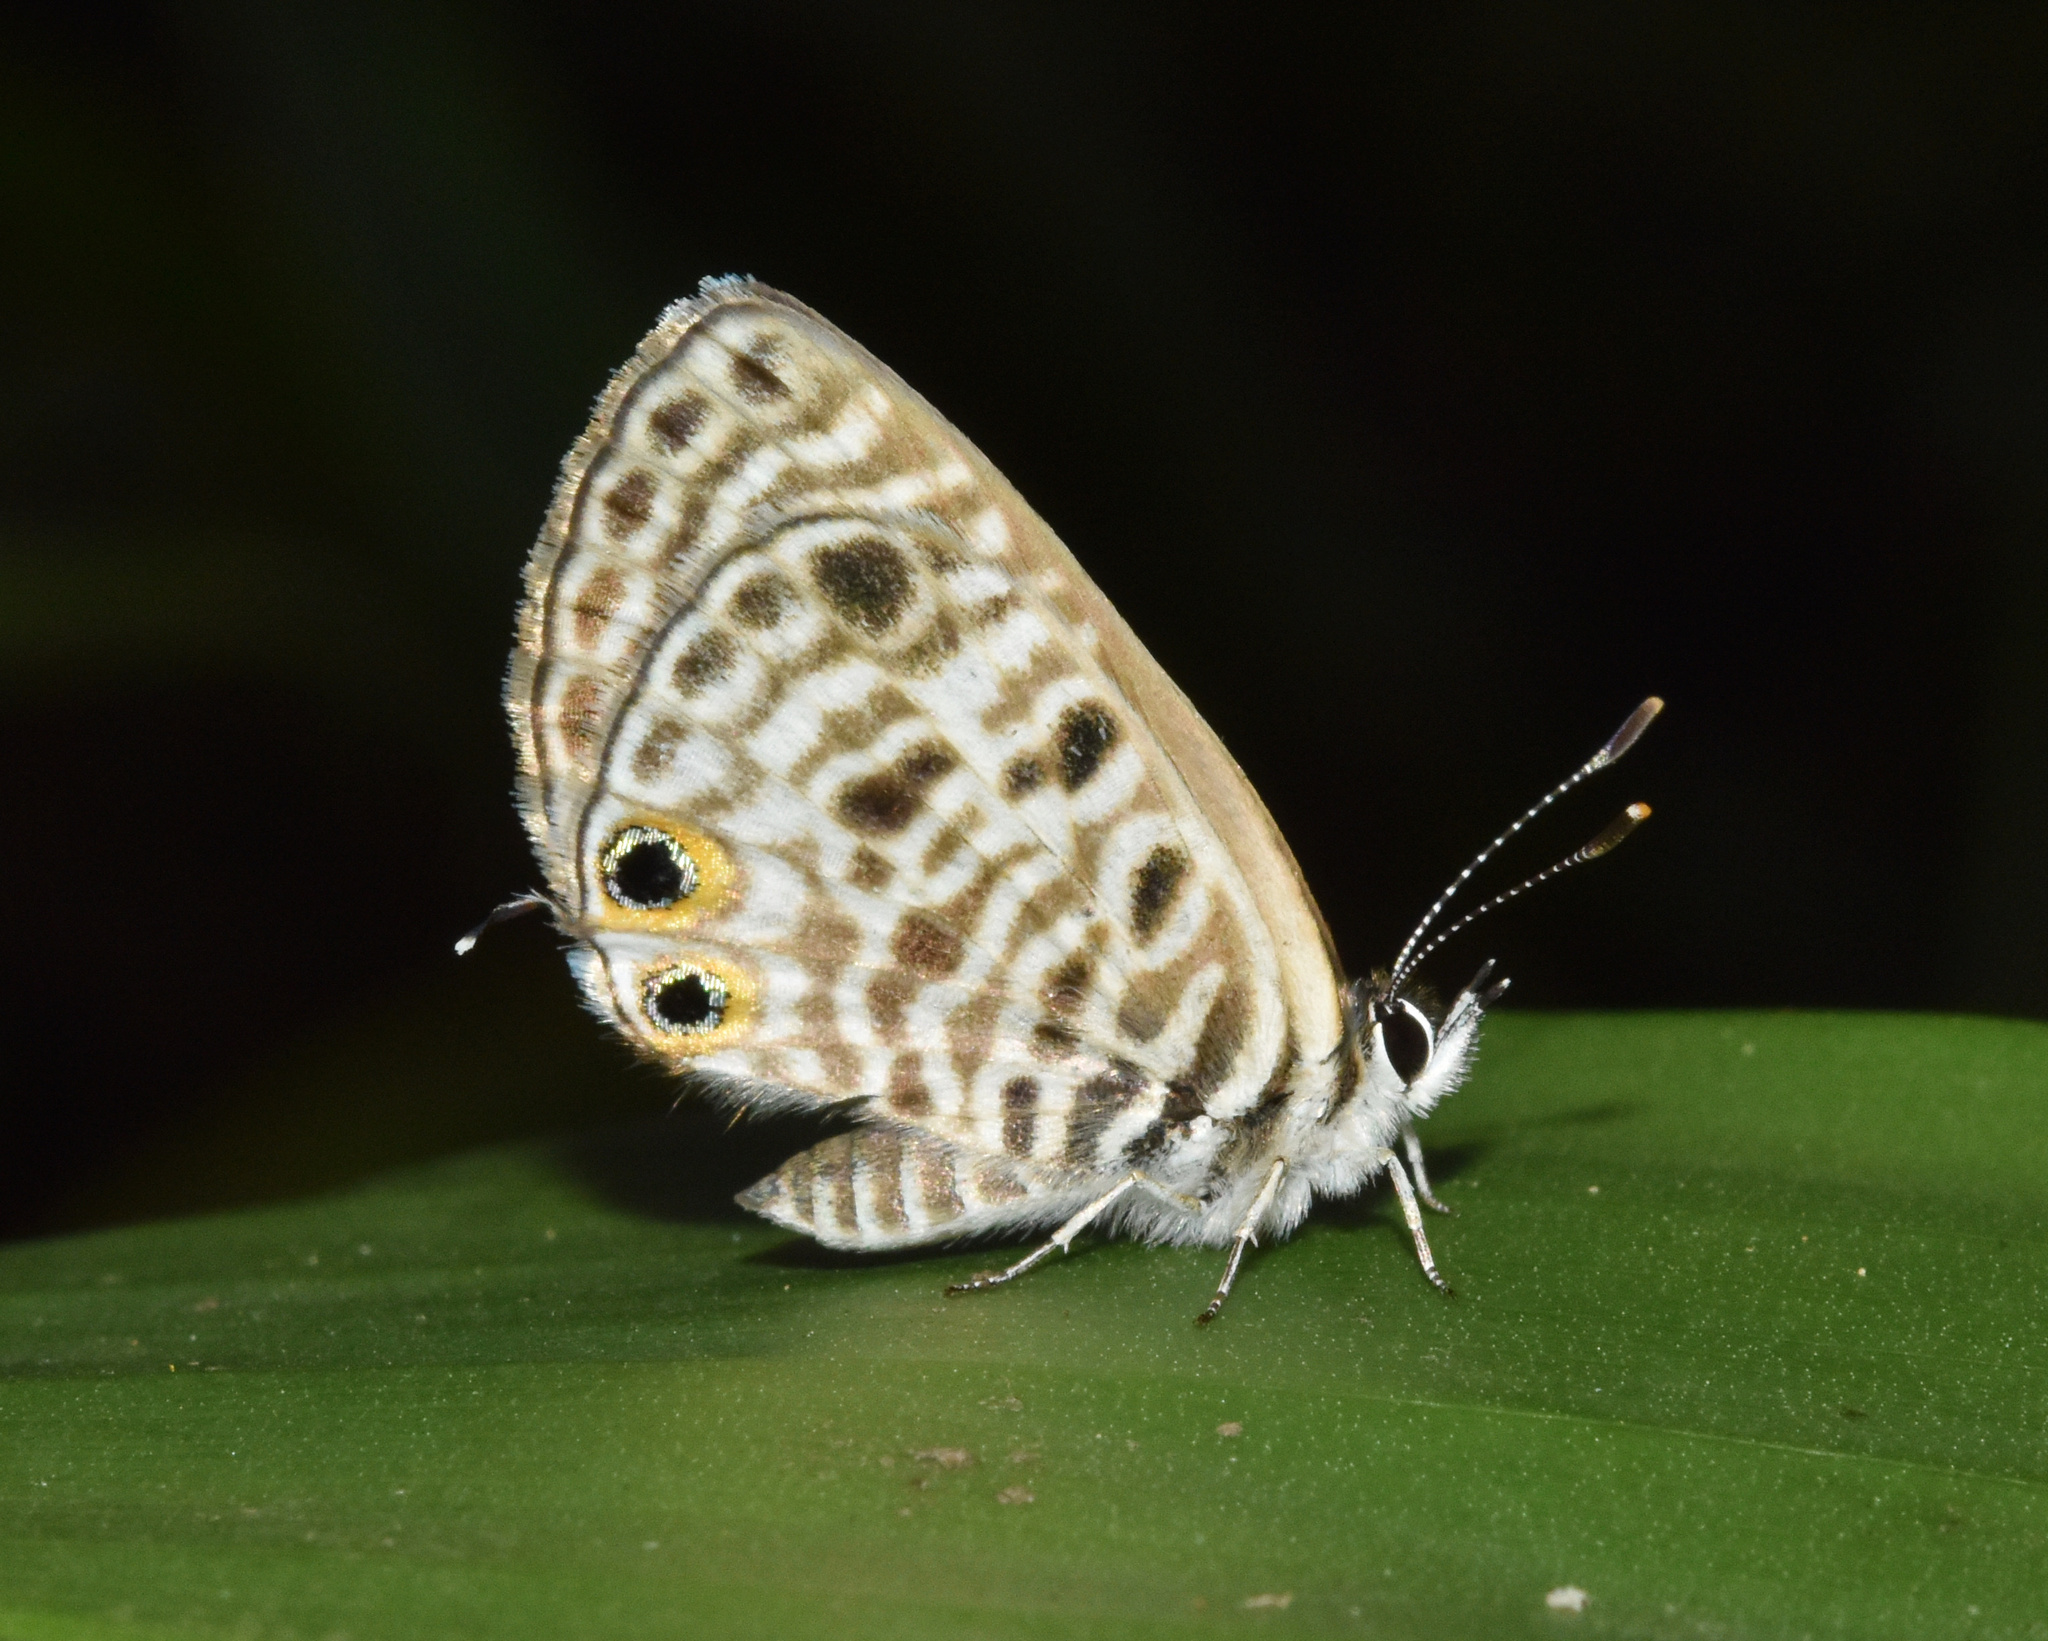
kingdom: Animalia
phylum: Arthropoda
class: Insecta
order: Lepidoptera
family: Lycaenidae
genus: Leptotes
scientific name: Leptotes
